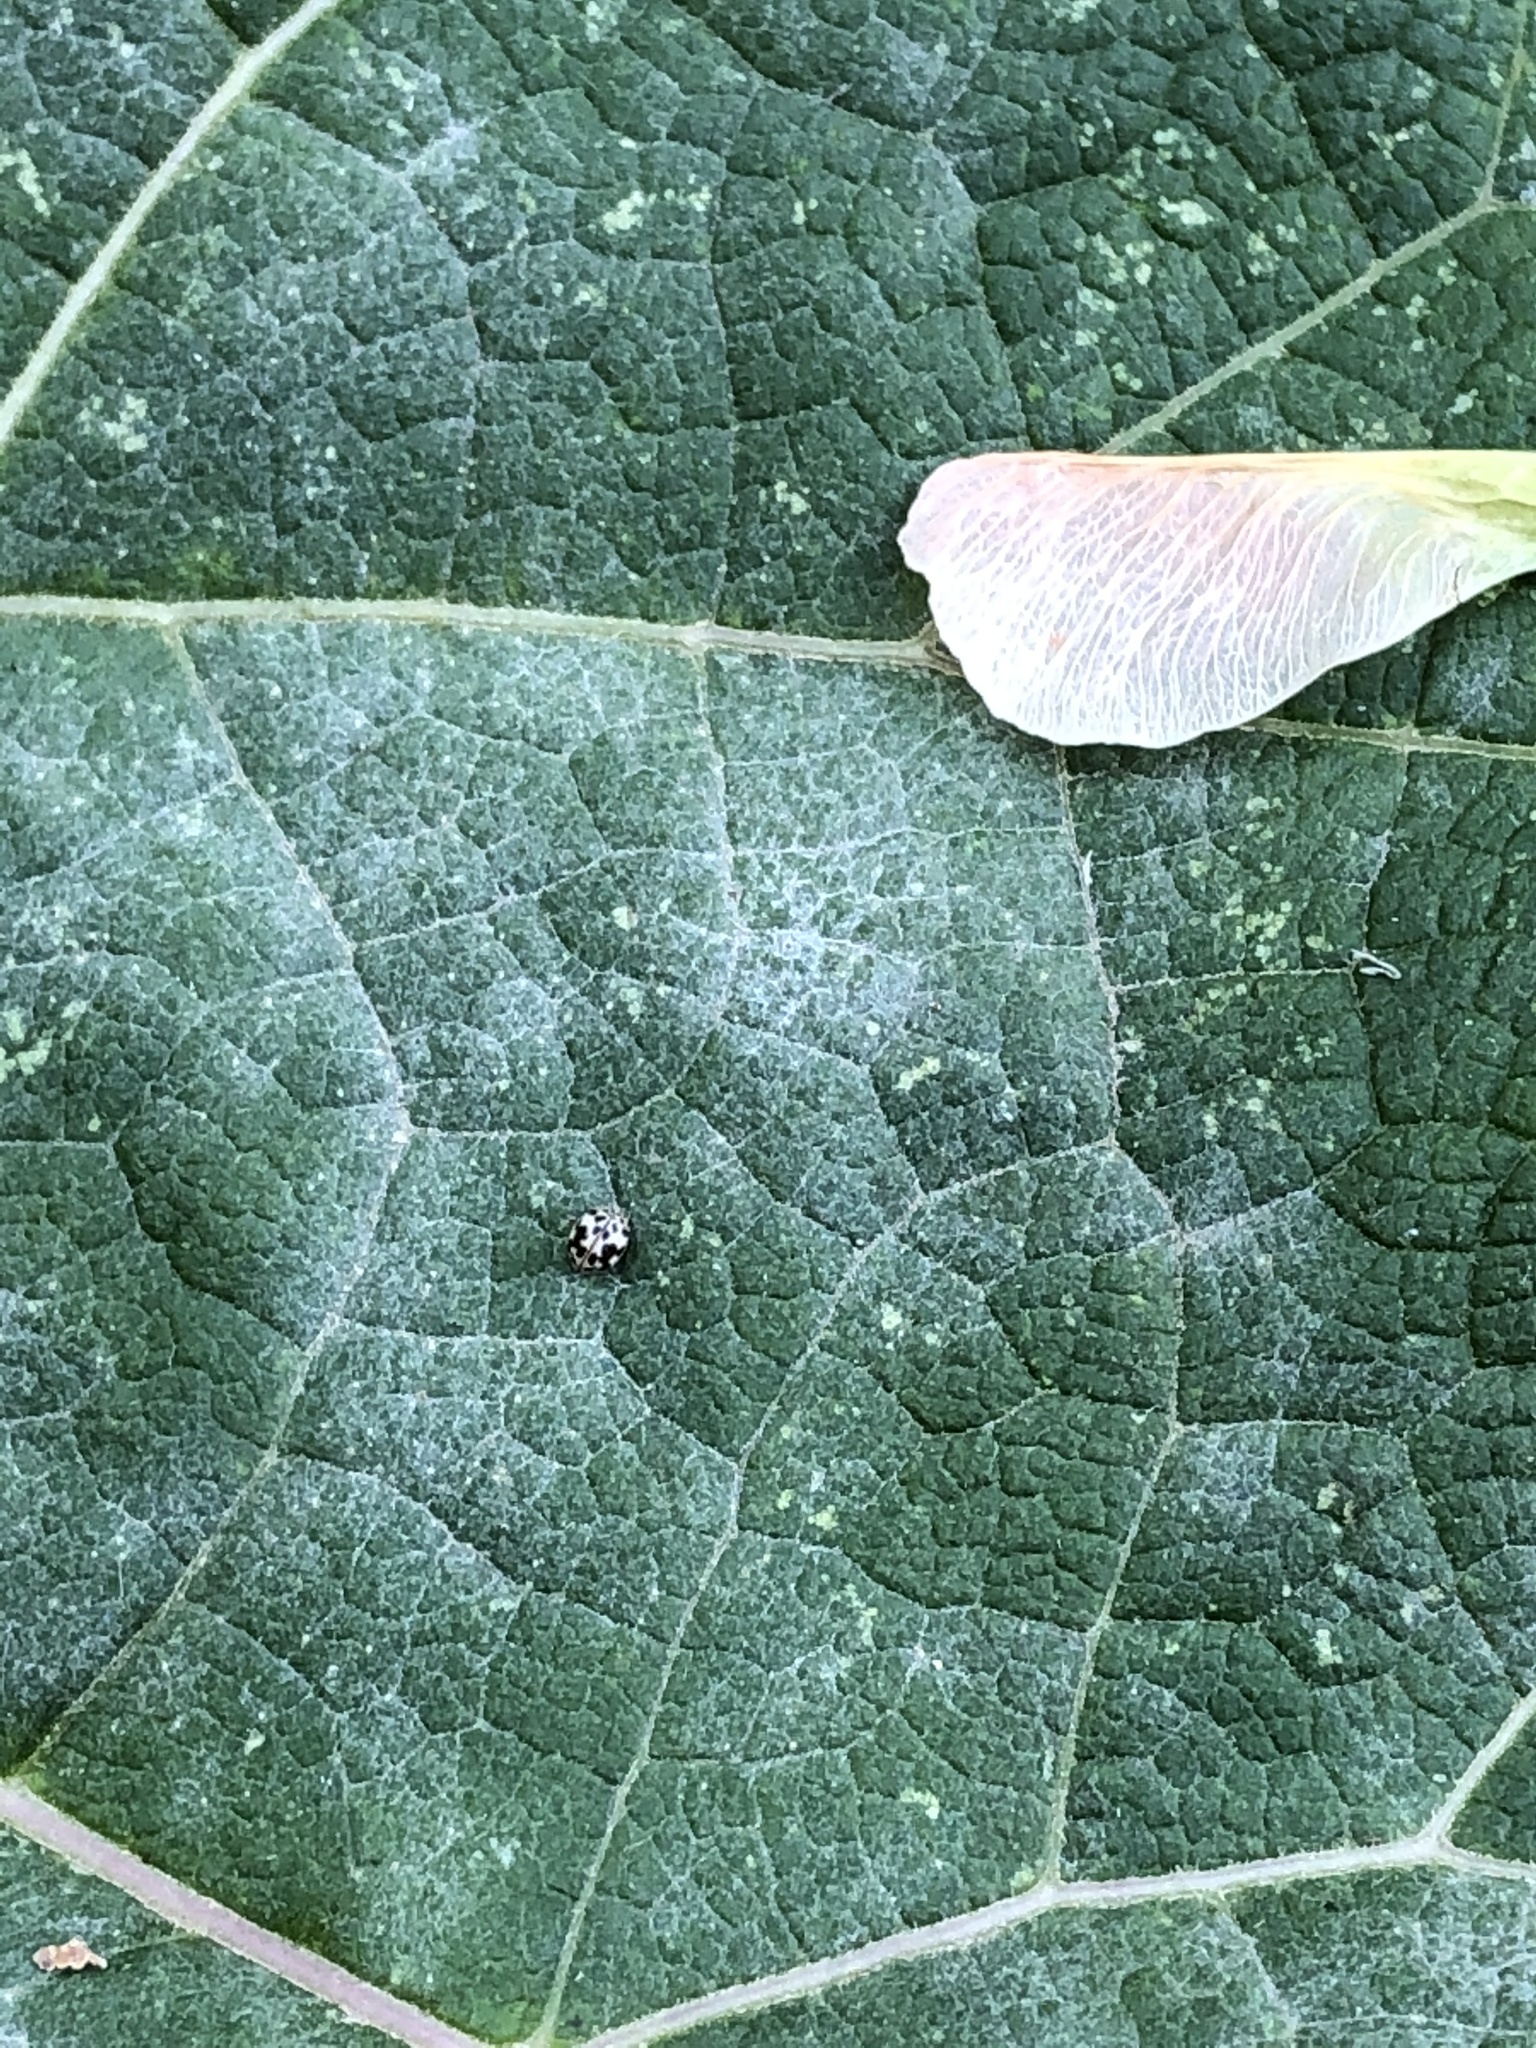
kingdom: Animalia
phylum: Arthropoda
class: Insecta
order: Coleoptera
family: Coccinellidae
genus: Psyllobora
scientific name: Psyllobora vigintimaculata
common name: Ladybird beetle
